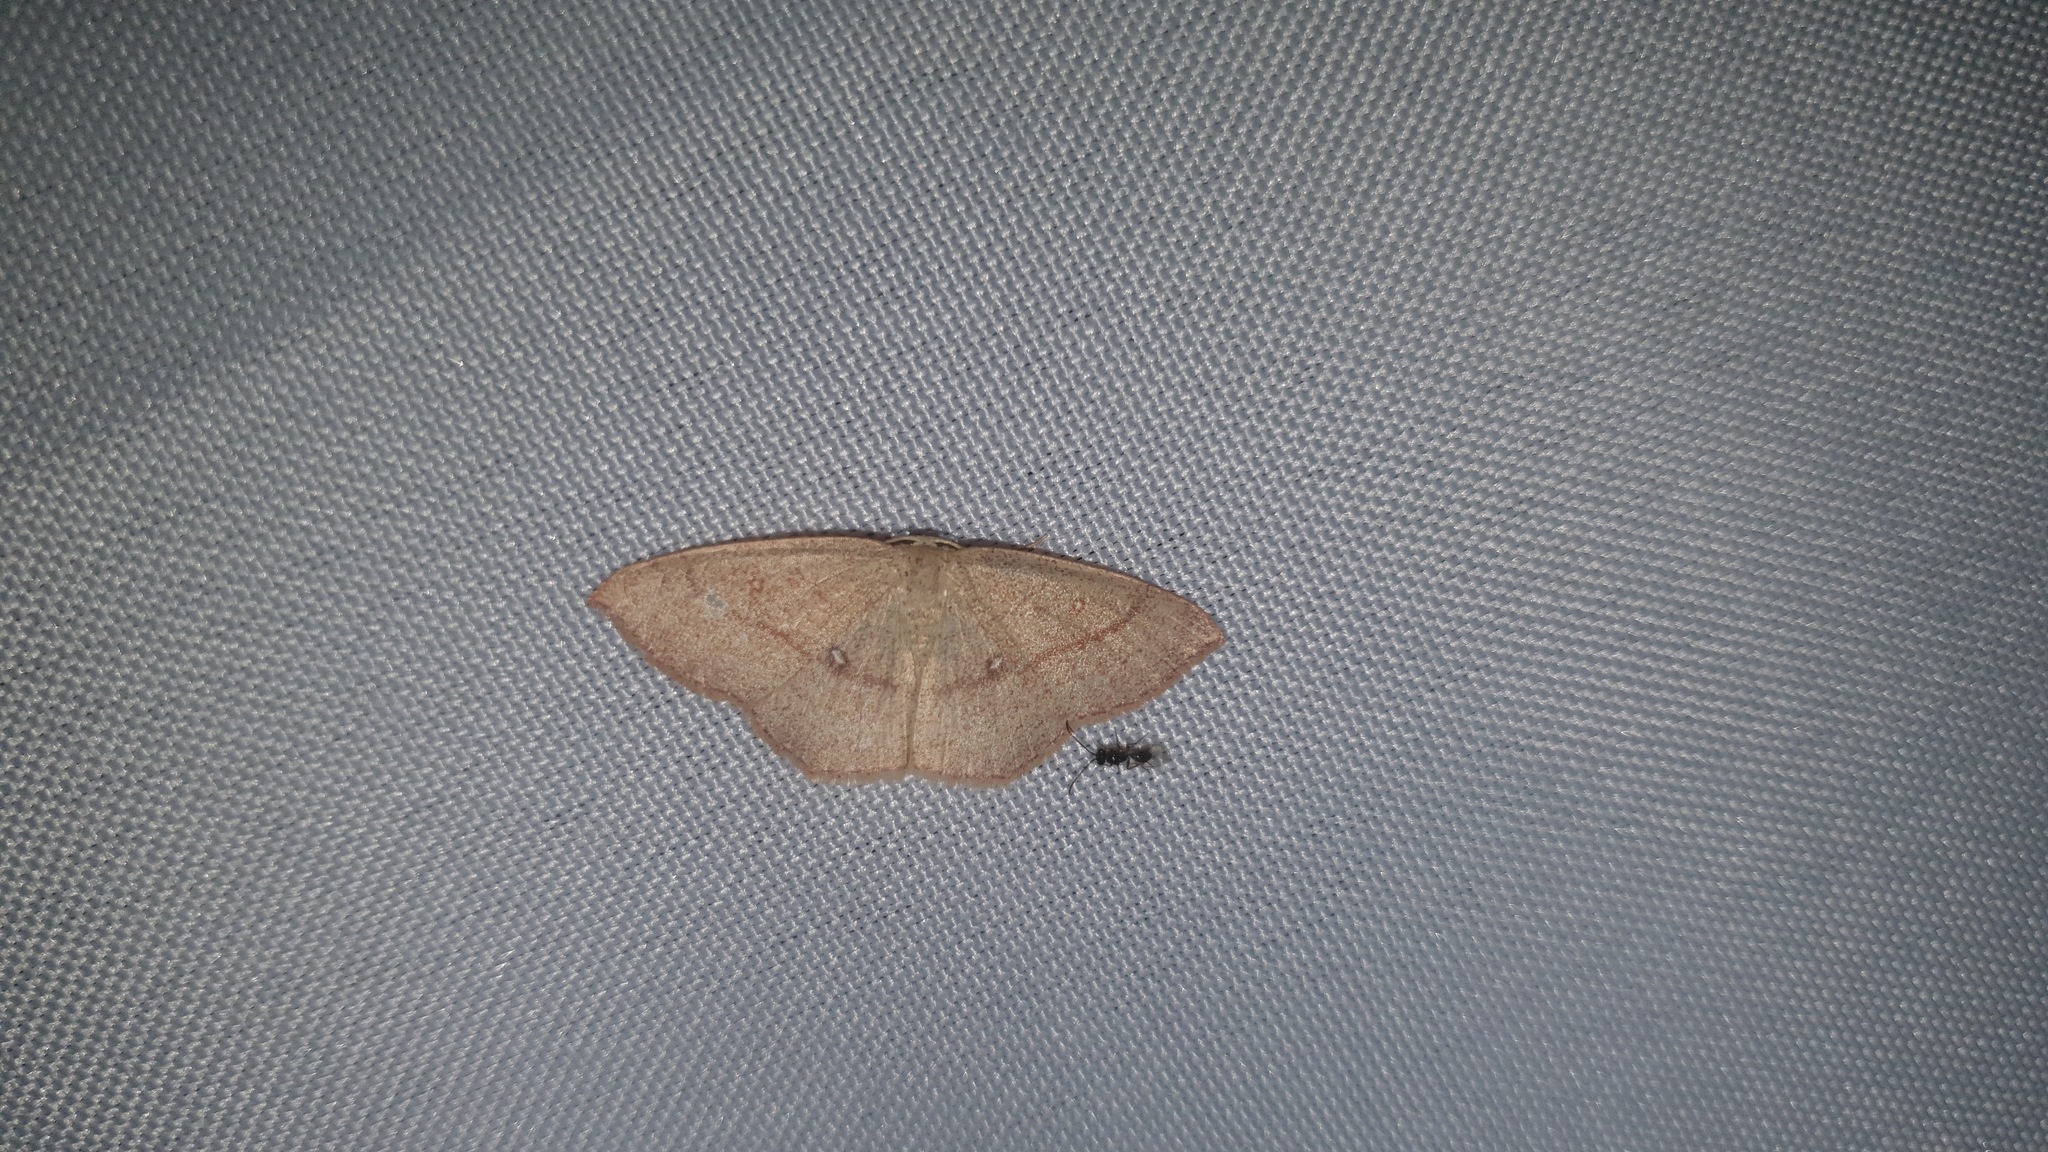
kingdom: Animalia
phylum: Arthropoda
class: Insecta
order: Lepidoptera
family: Geometridae
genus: Cyclophora
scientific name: Cyclophora linearia
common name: Clay triple-lines
